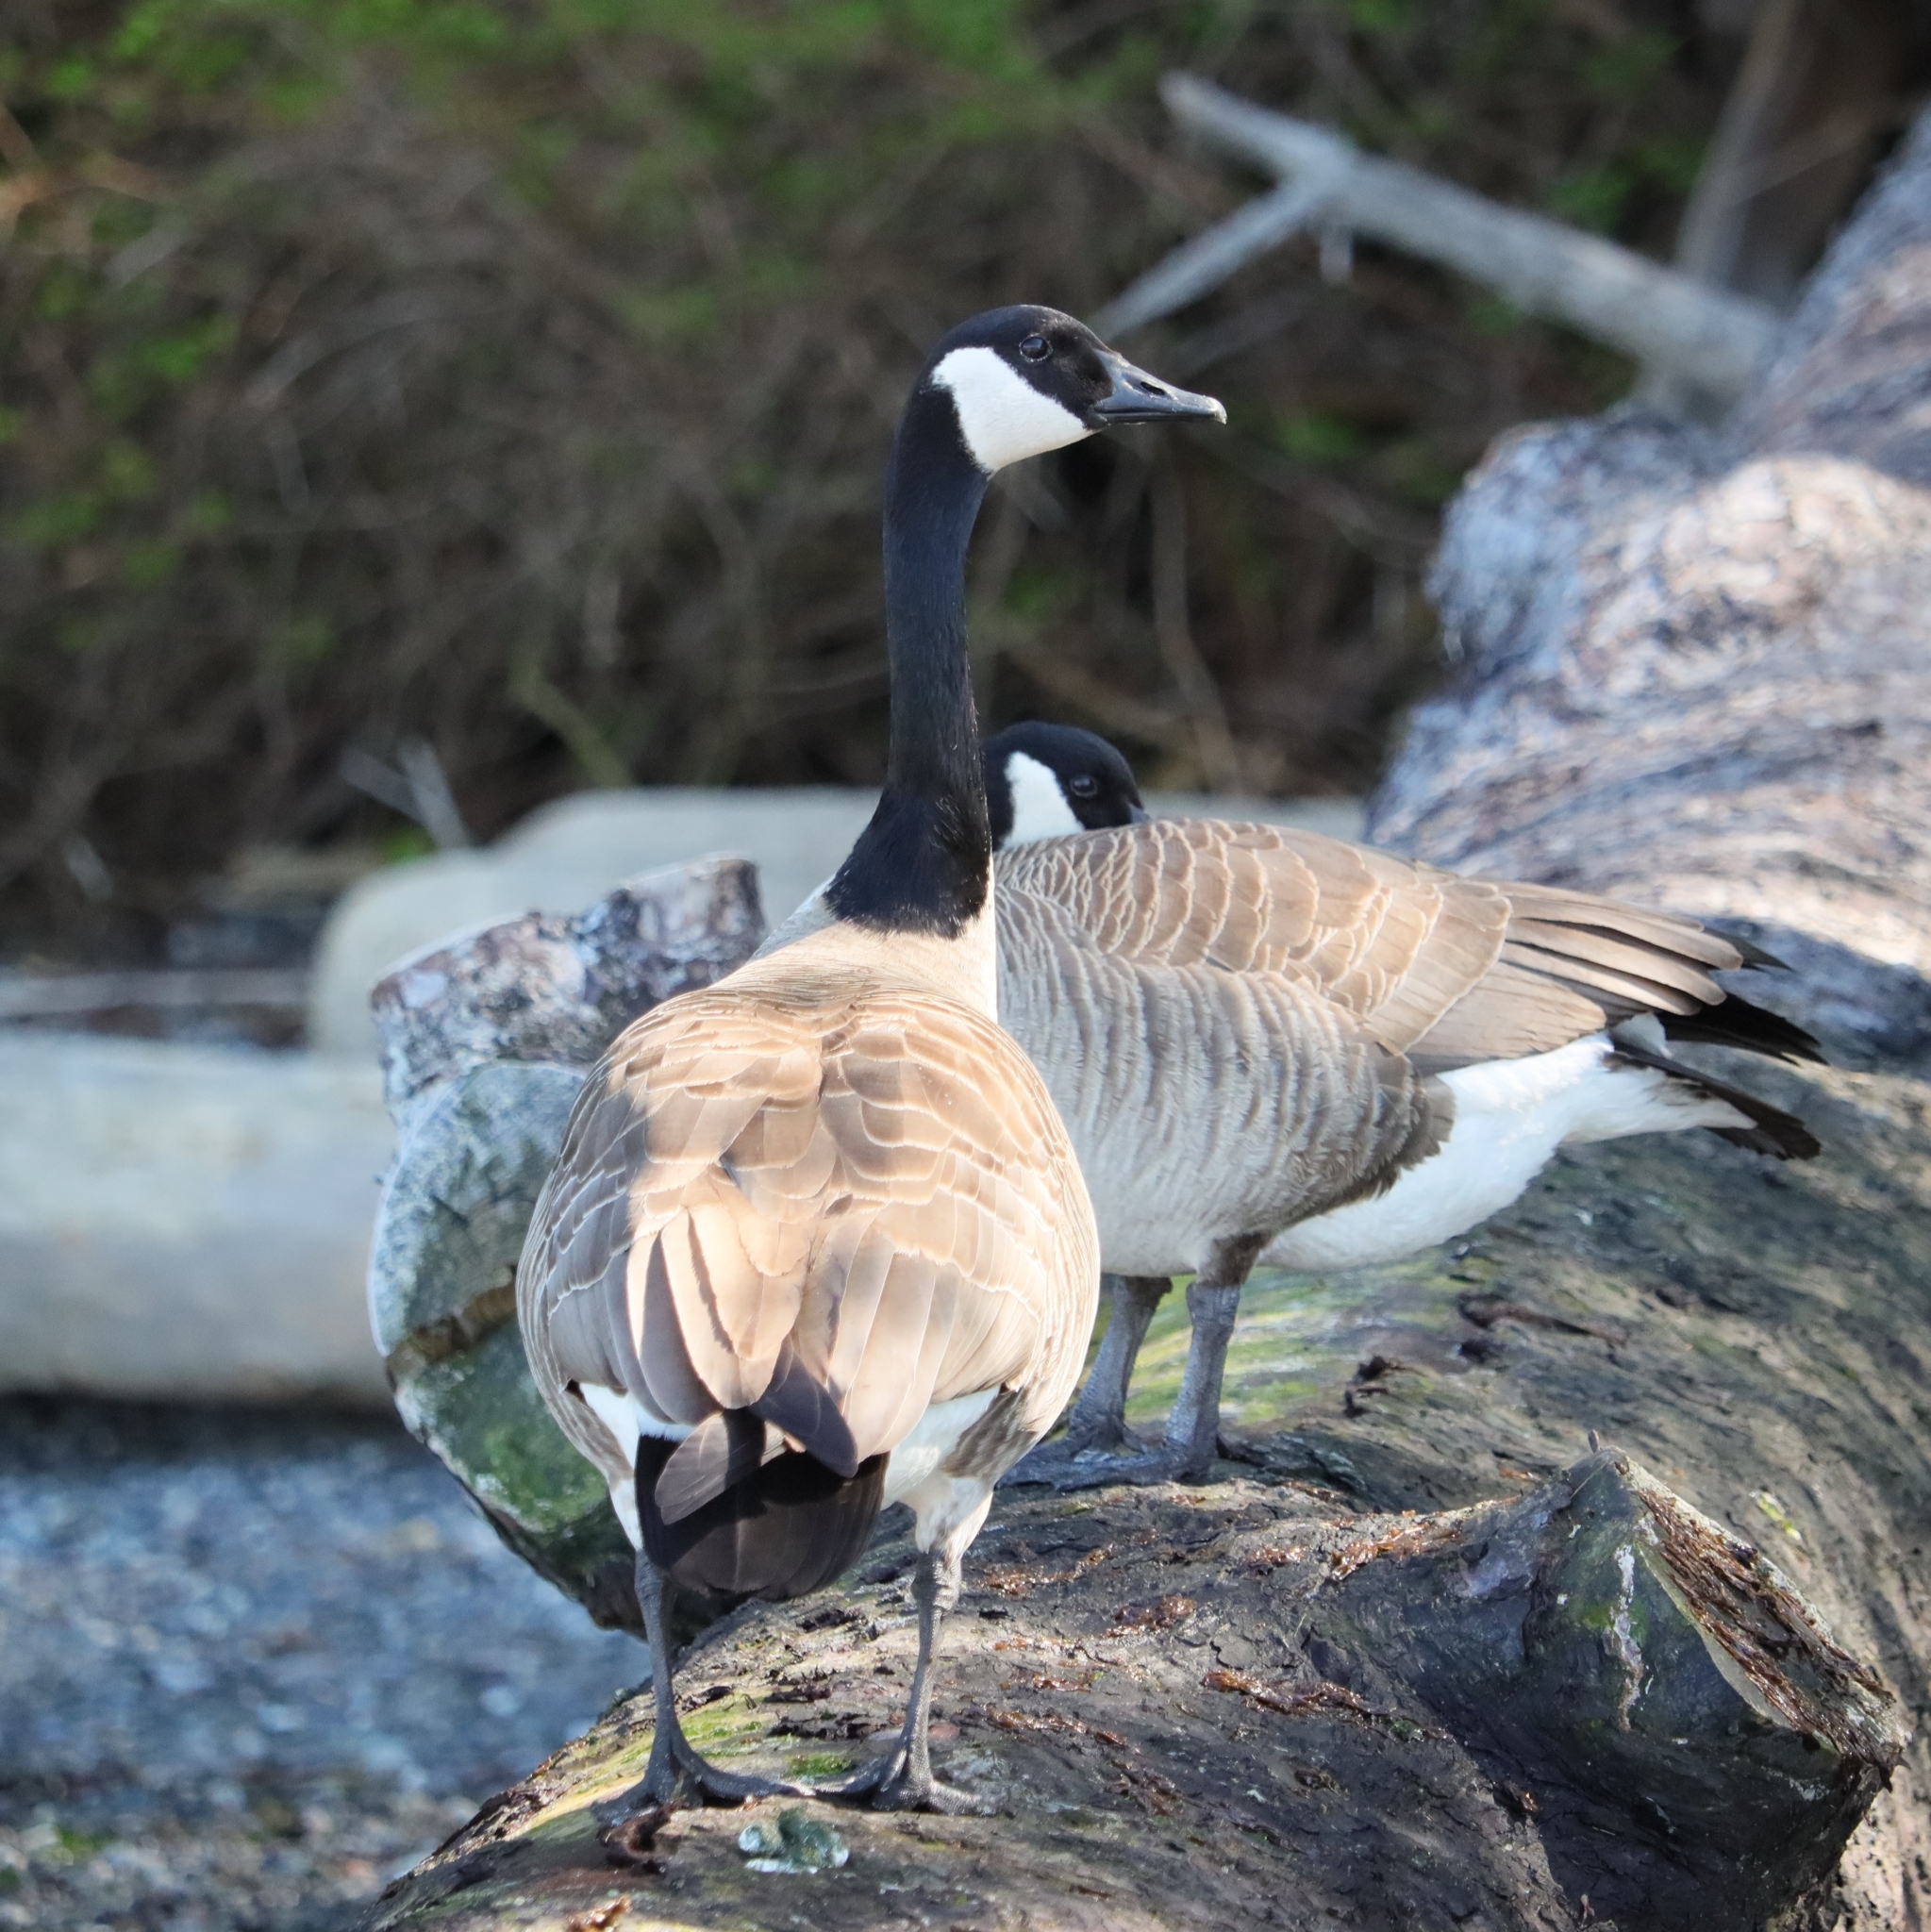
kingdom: Animalia
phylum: Chordata
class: Aves
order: Anseriformes
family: Anatidae
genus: Branta
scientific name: Branta canadensis
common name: Canada goose
